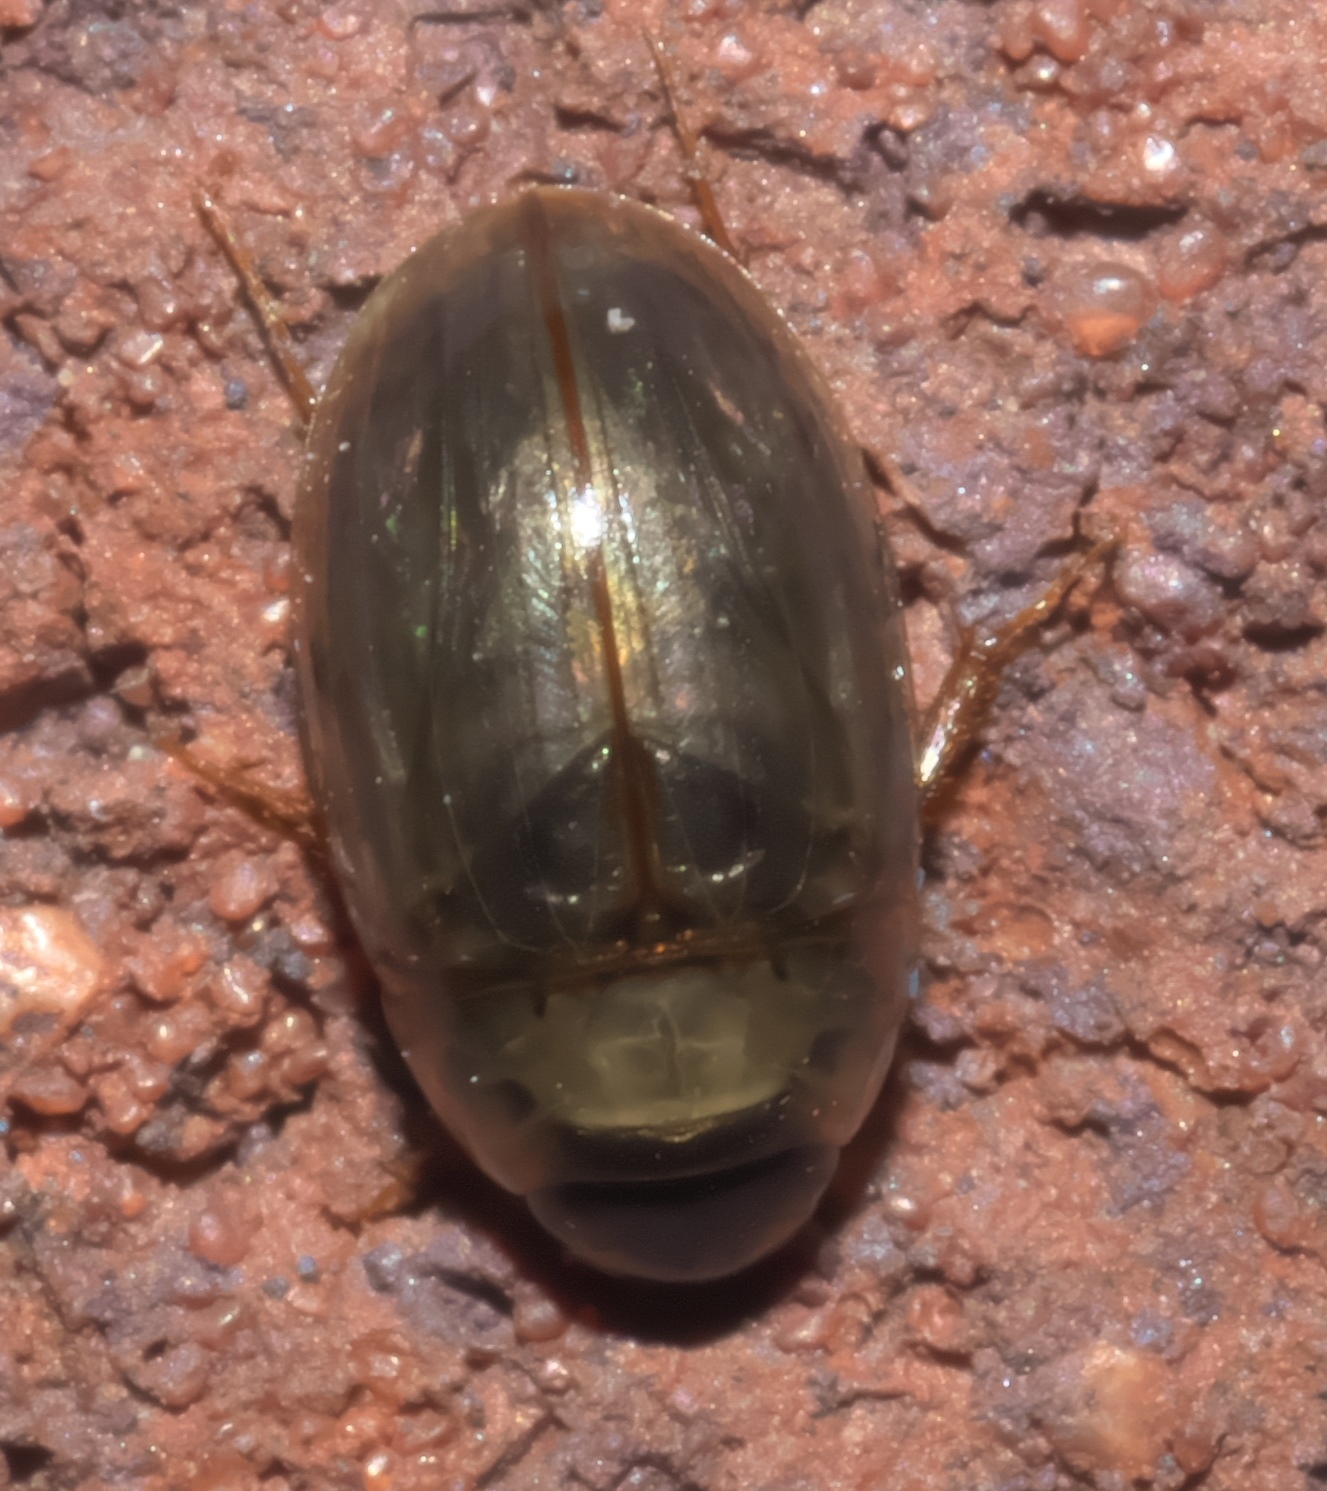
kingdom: Animalia
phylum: Arthropoda
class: Insecta
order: Coleoptera
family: Hydrophilidae
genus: Enochrus
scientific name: Enochrus
